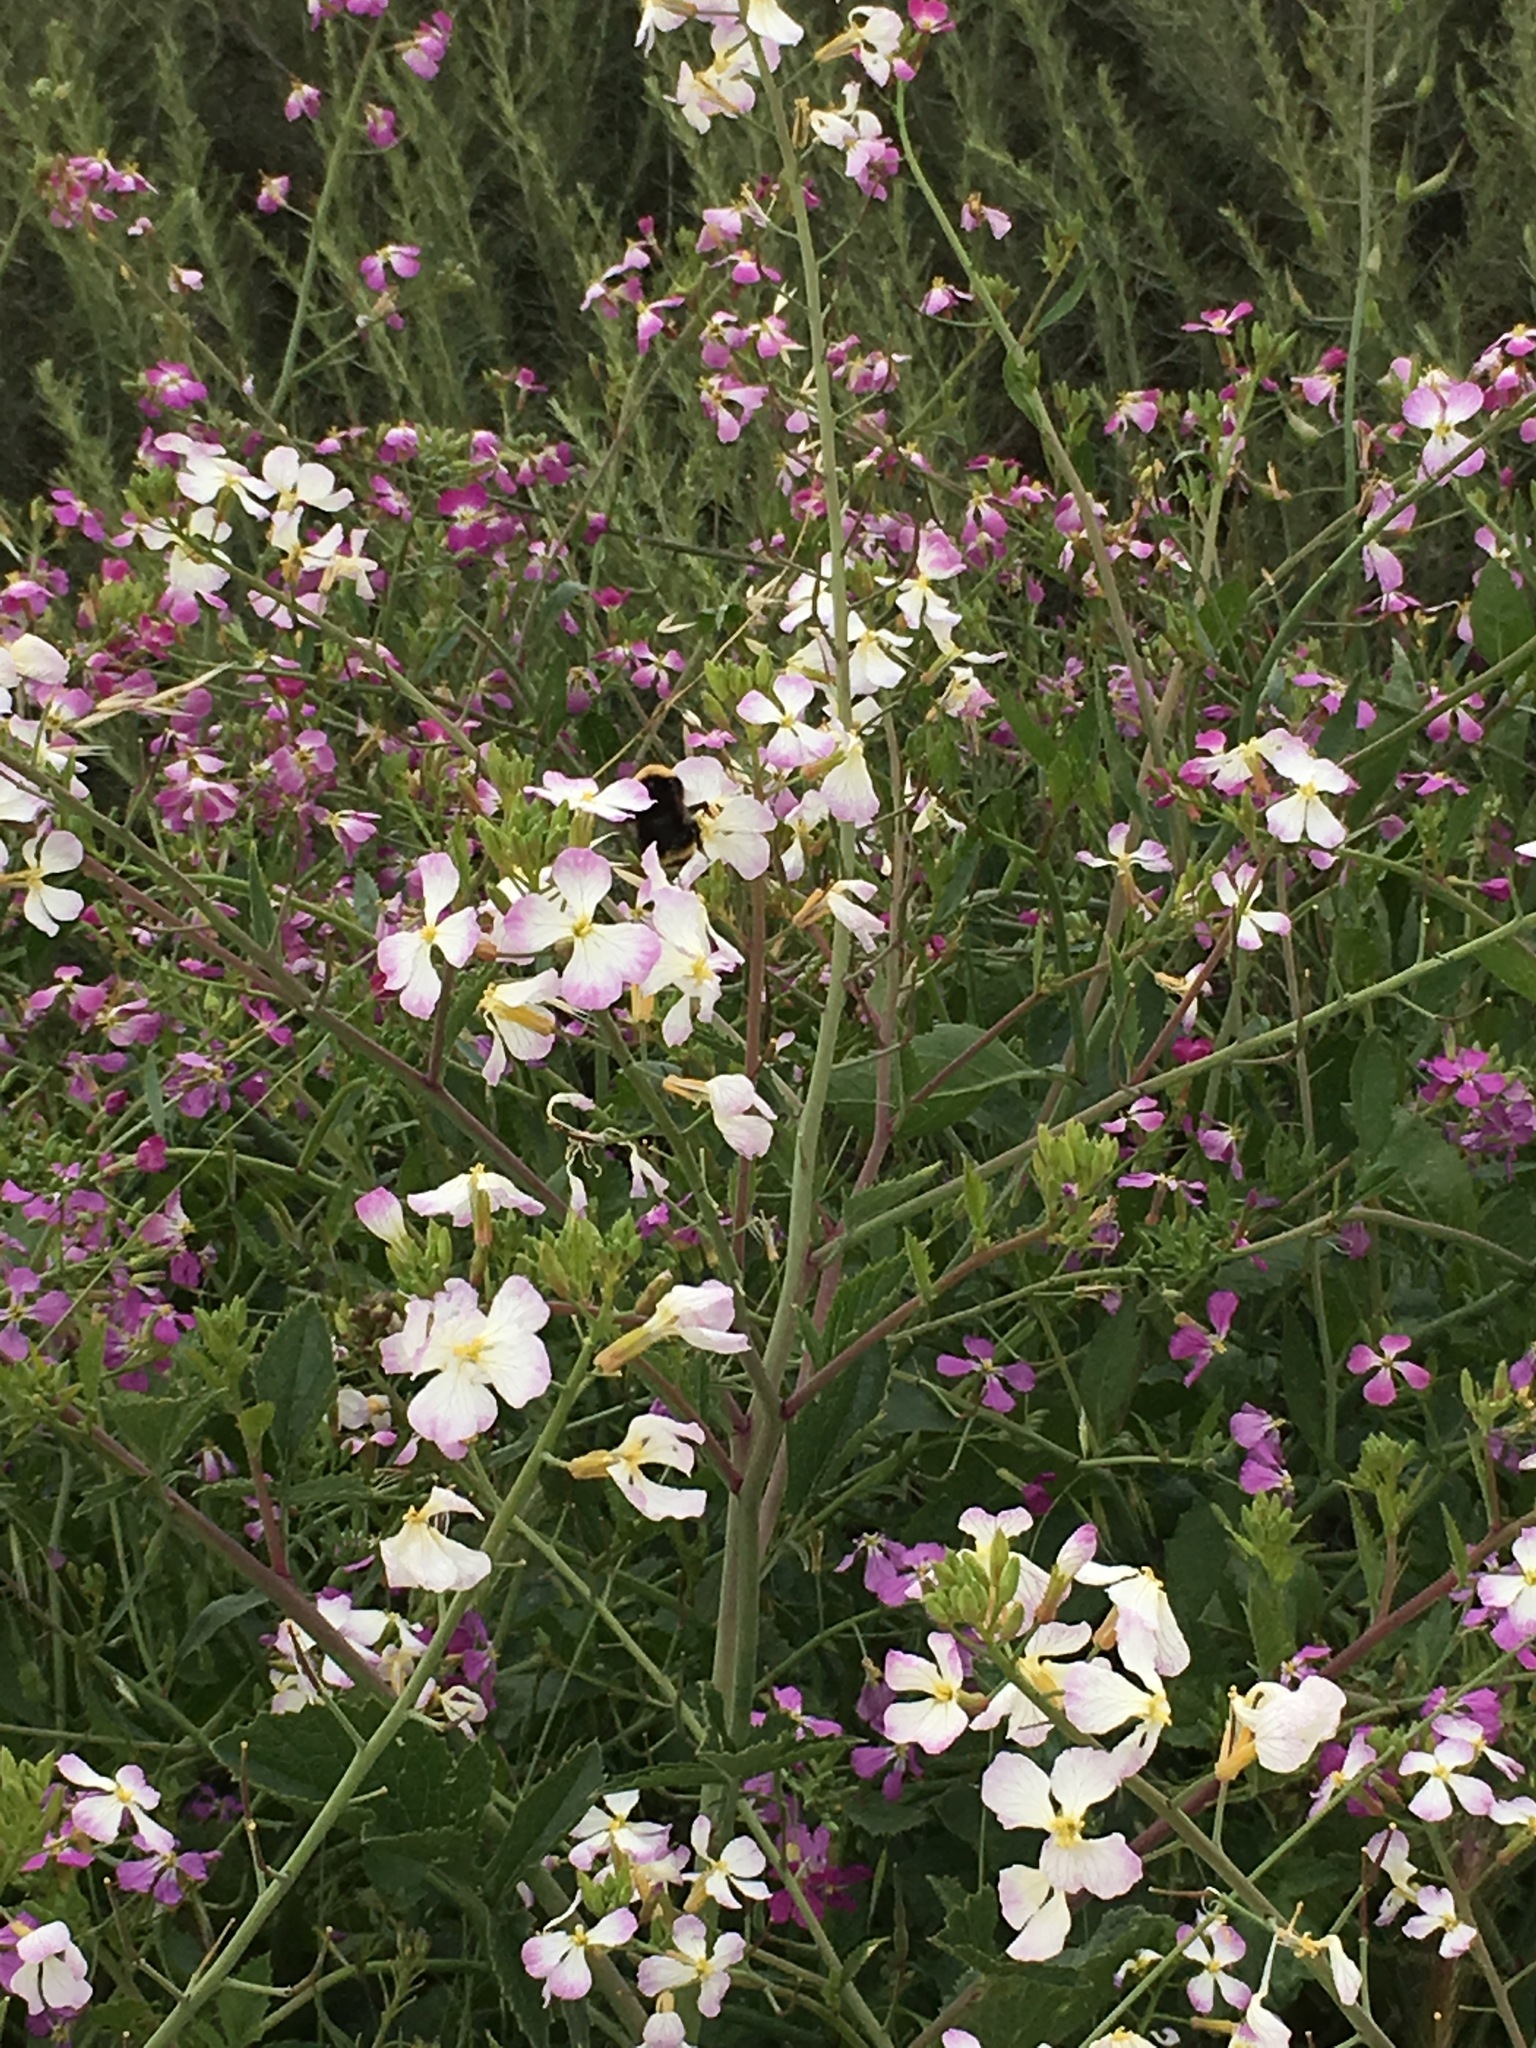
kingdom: Plantae
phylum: Tracheophyta
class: Magnoliopsida
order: Brassicales
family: Brassicaceae
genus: Raphanus
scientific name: Raphanus sativus
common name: Cultivated radish
